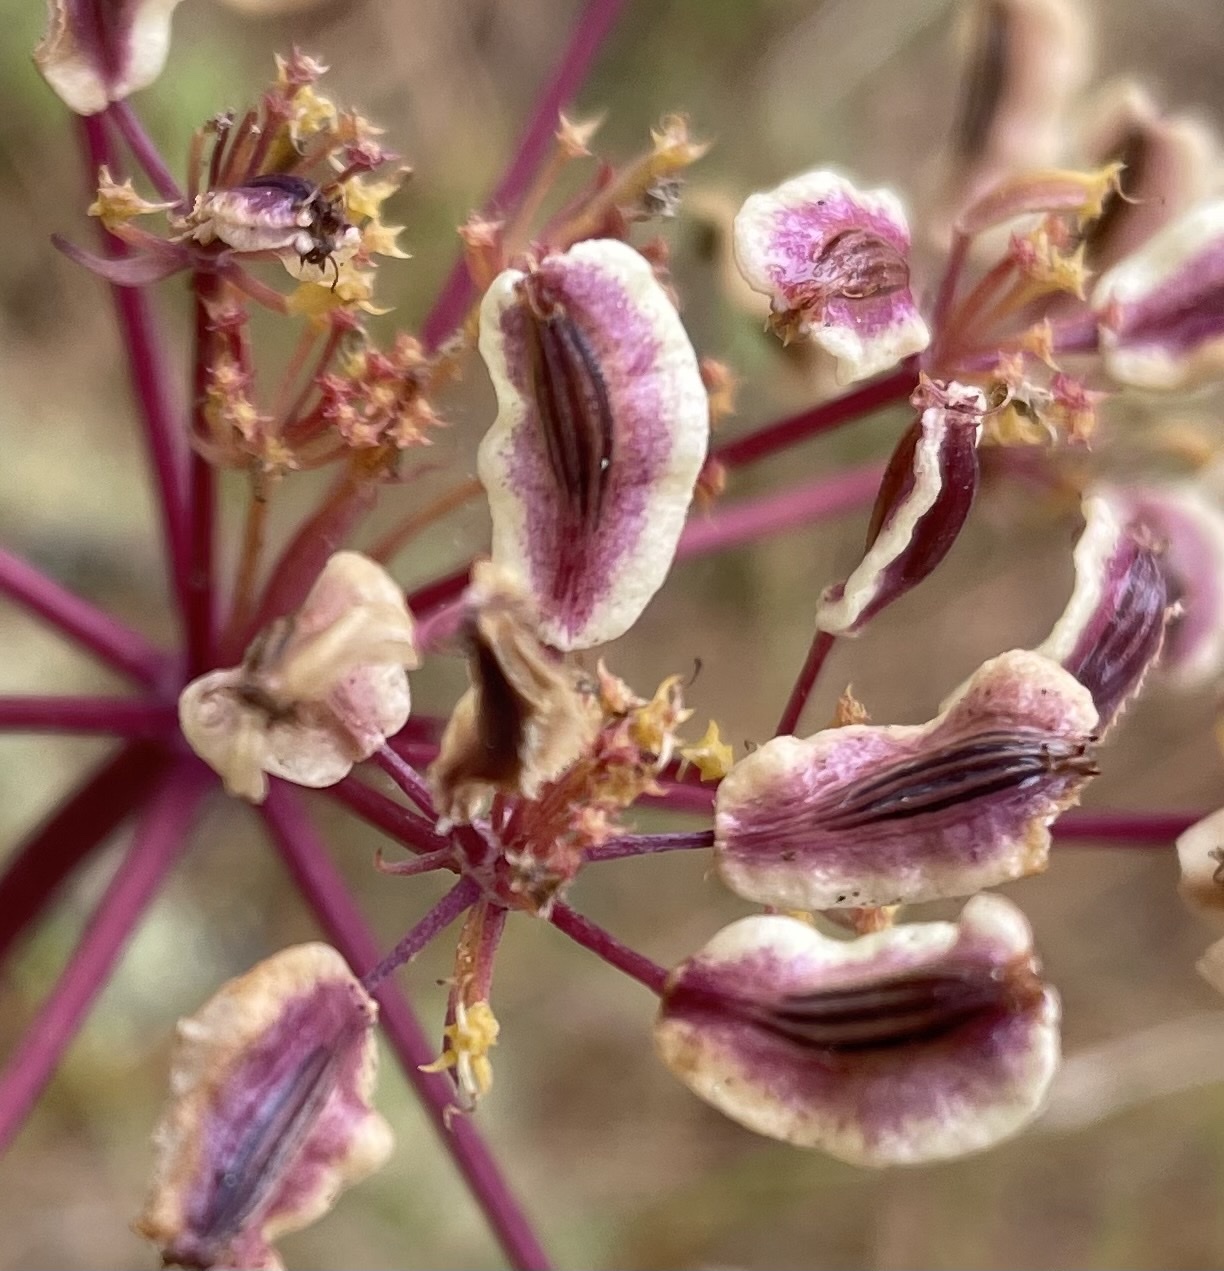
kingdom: Plantae
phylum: Tracheophyta
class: Magnoliopsida
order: Apiales
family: Apiaceae
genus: Lomatium
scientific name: Lomatium parvifolium
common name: Small-leaf lomatium
